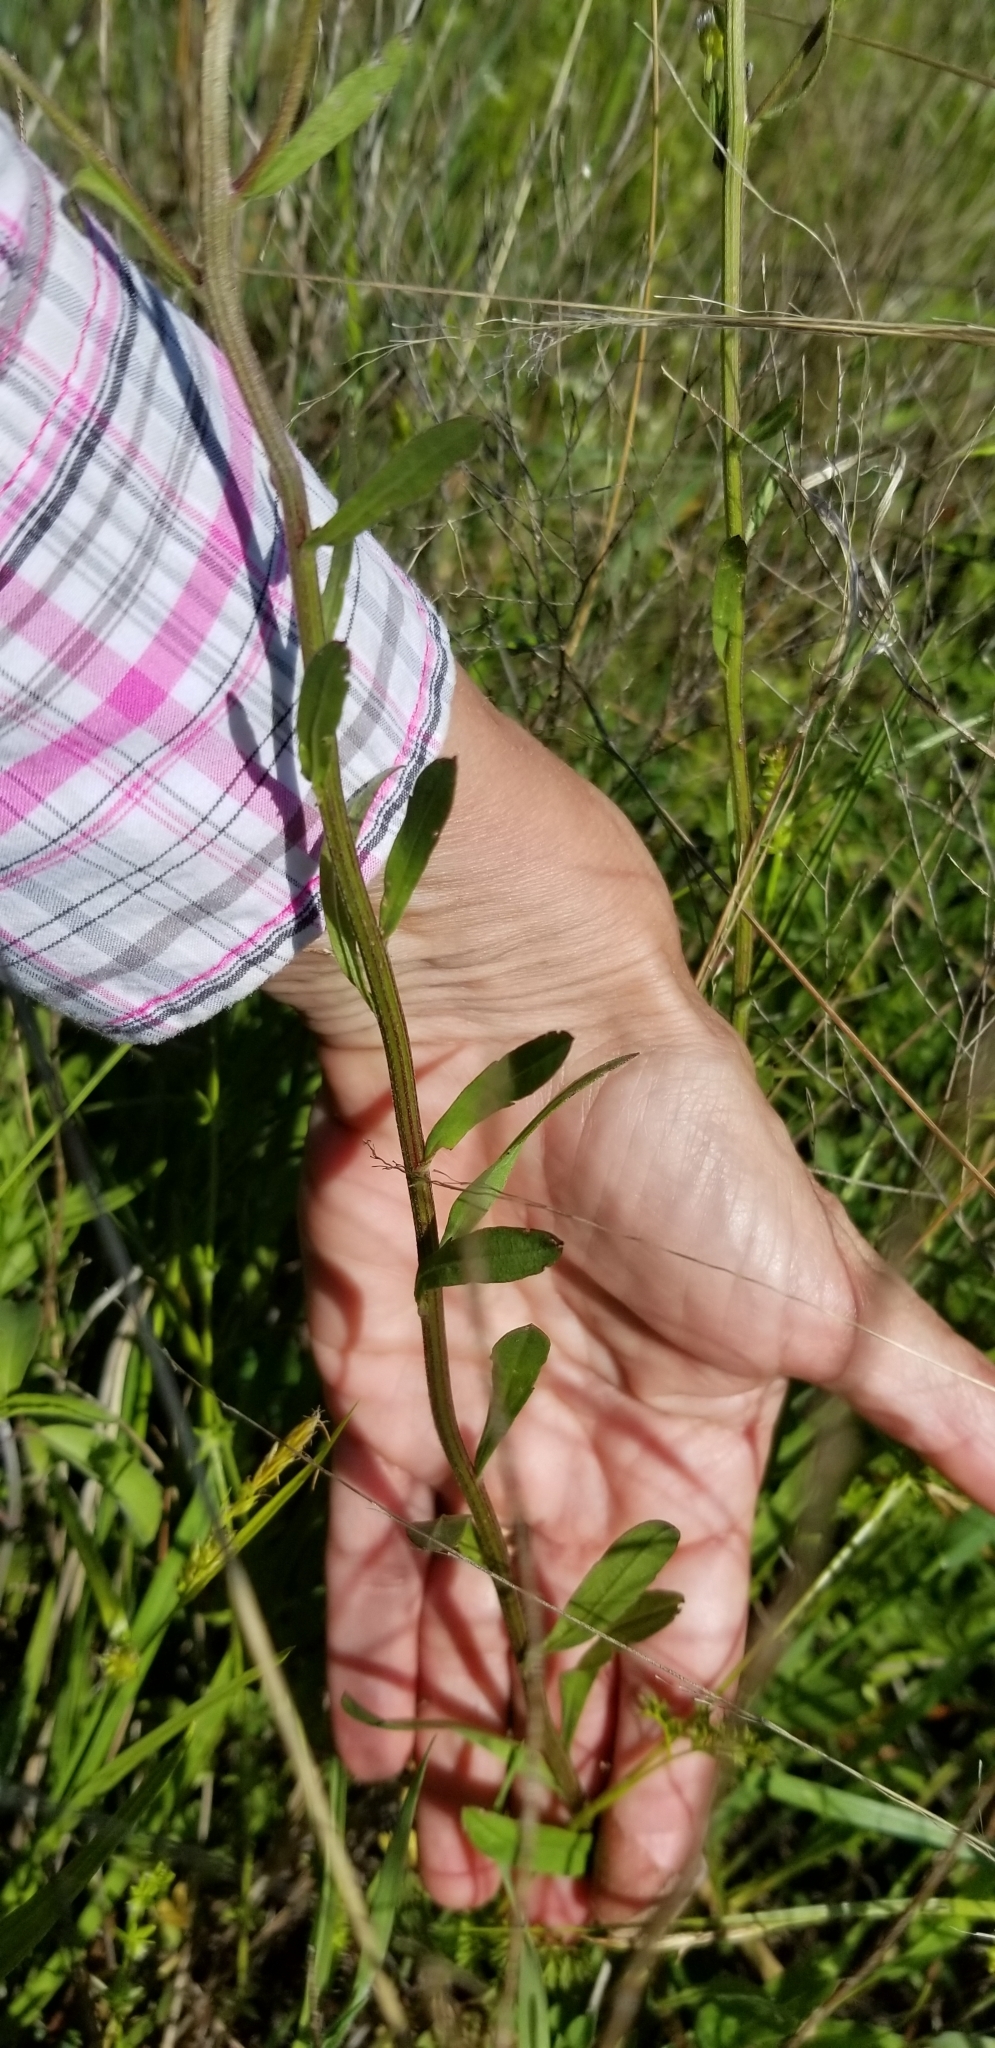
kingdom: Plantae
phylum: Tracheophyta
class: Magnoliopsida
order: Asterales
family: Asteraceae
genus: Erigeron
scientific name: Erigeron strigosus
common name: Common eastern fleabane
